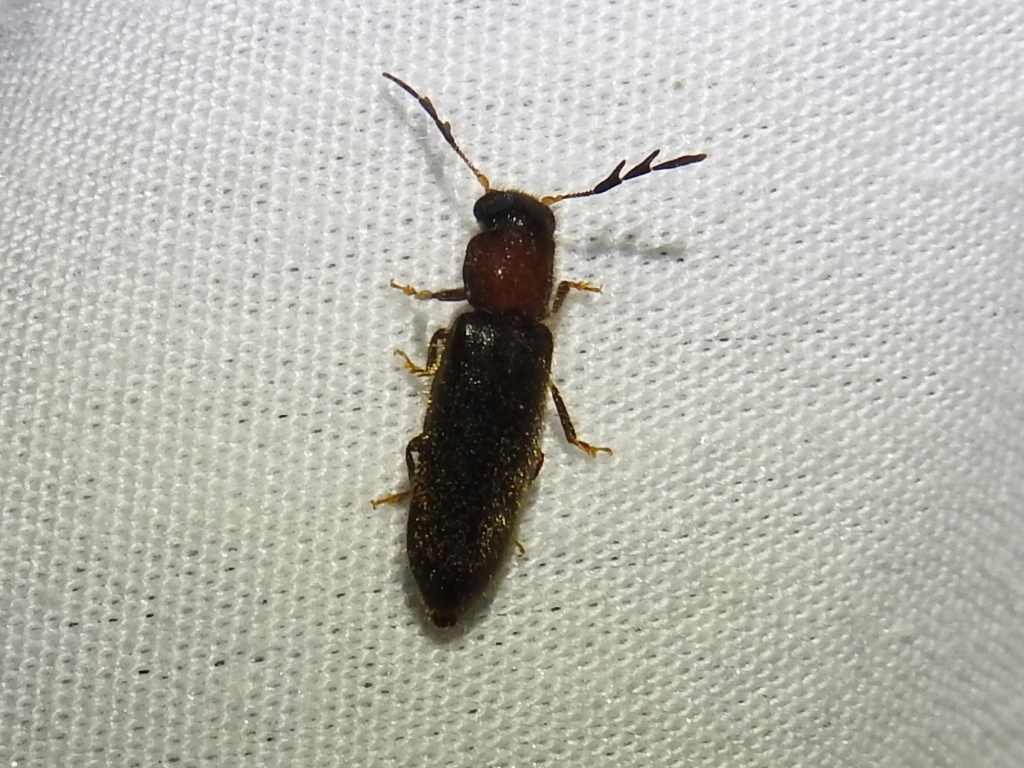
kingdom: Animalia
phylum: Arthropoda
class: Insecta
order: Coleoptera
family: Cleridae
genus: Neorthopleura
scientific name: Neorthopleura texana
